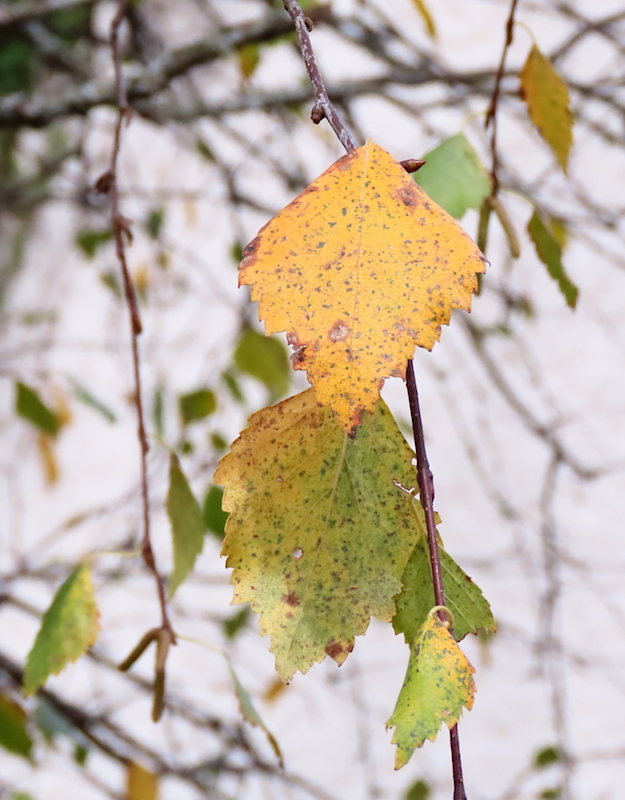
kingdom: Plantae
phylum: Tracheophyta
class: Magnoliopsida
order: Fagales
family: Betulaceae
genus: Betula
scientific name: Betula pendula
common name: Silver birch
